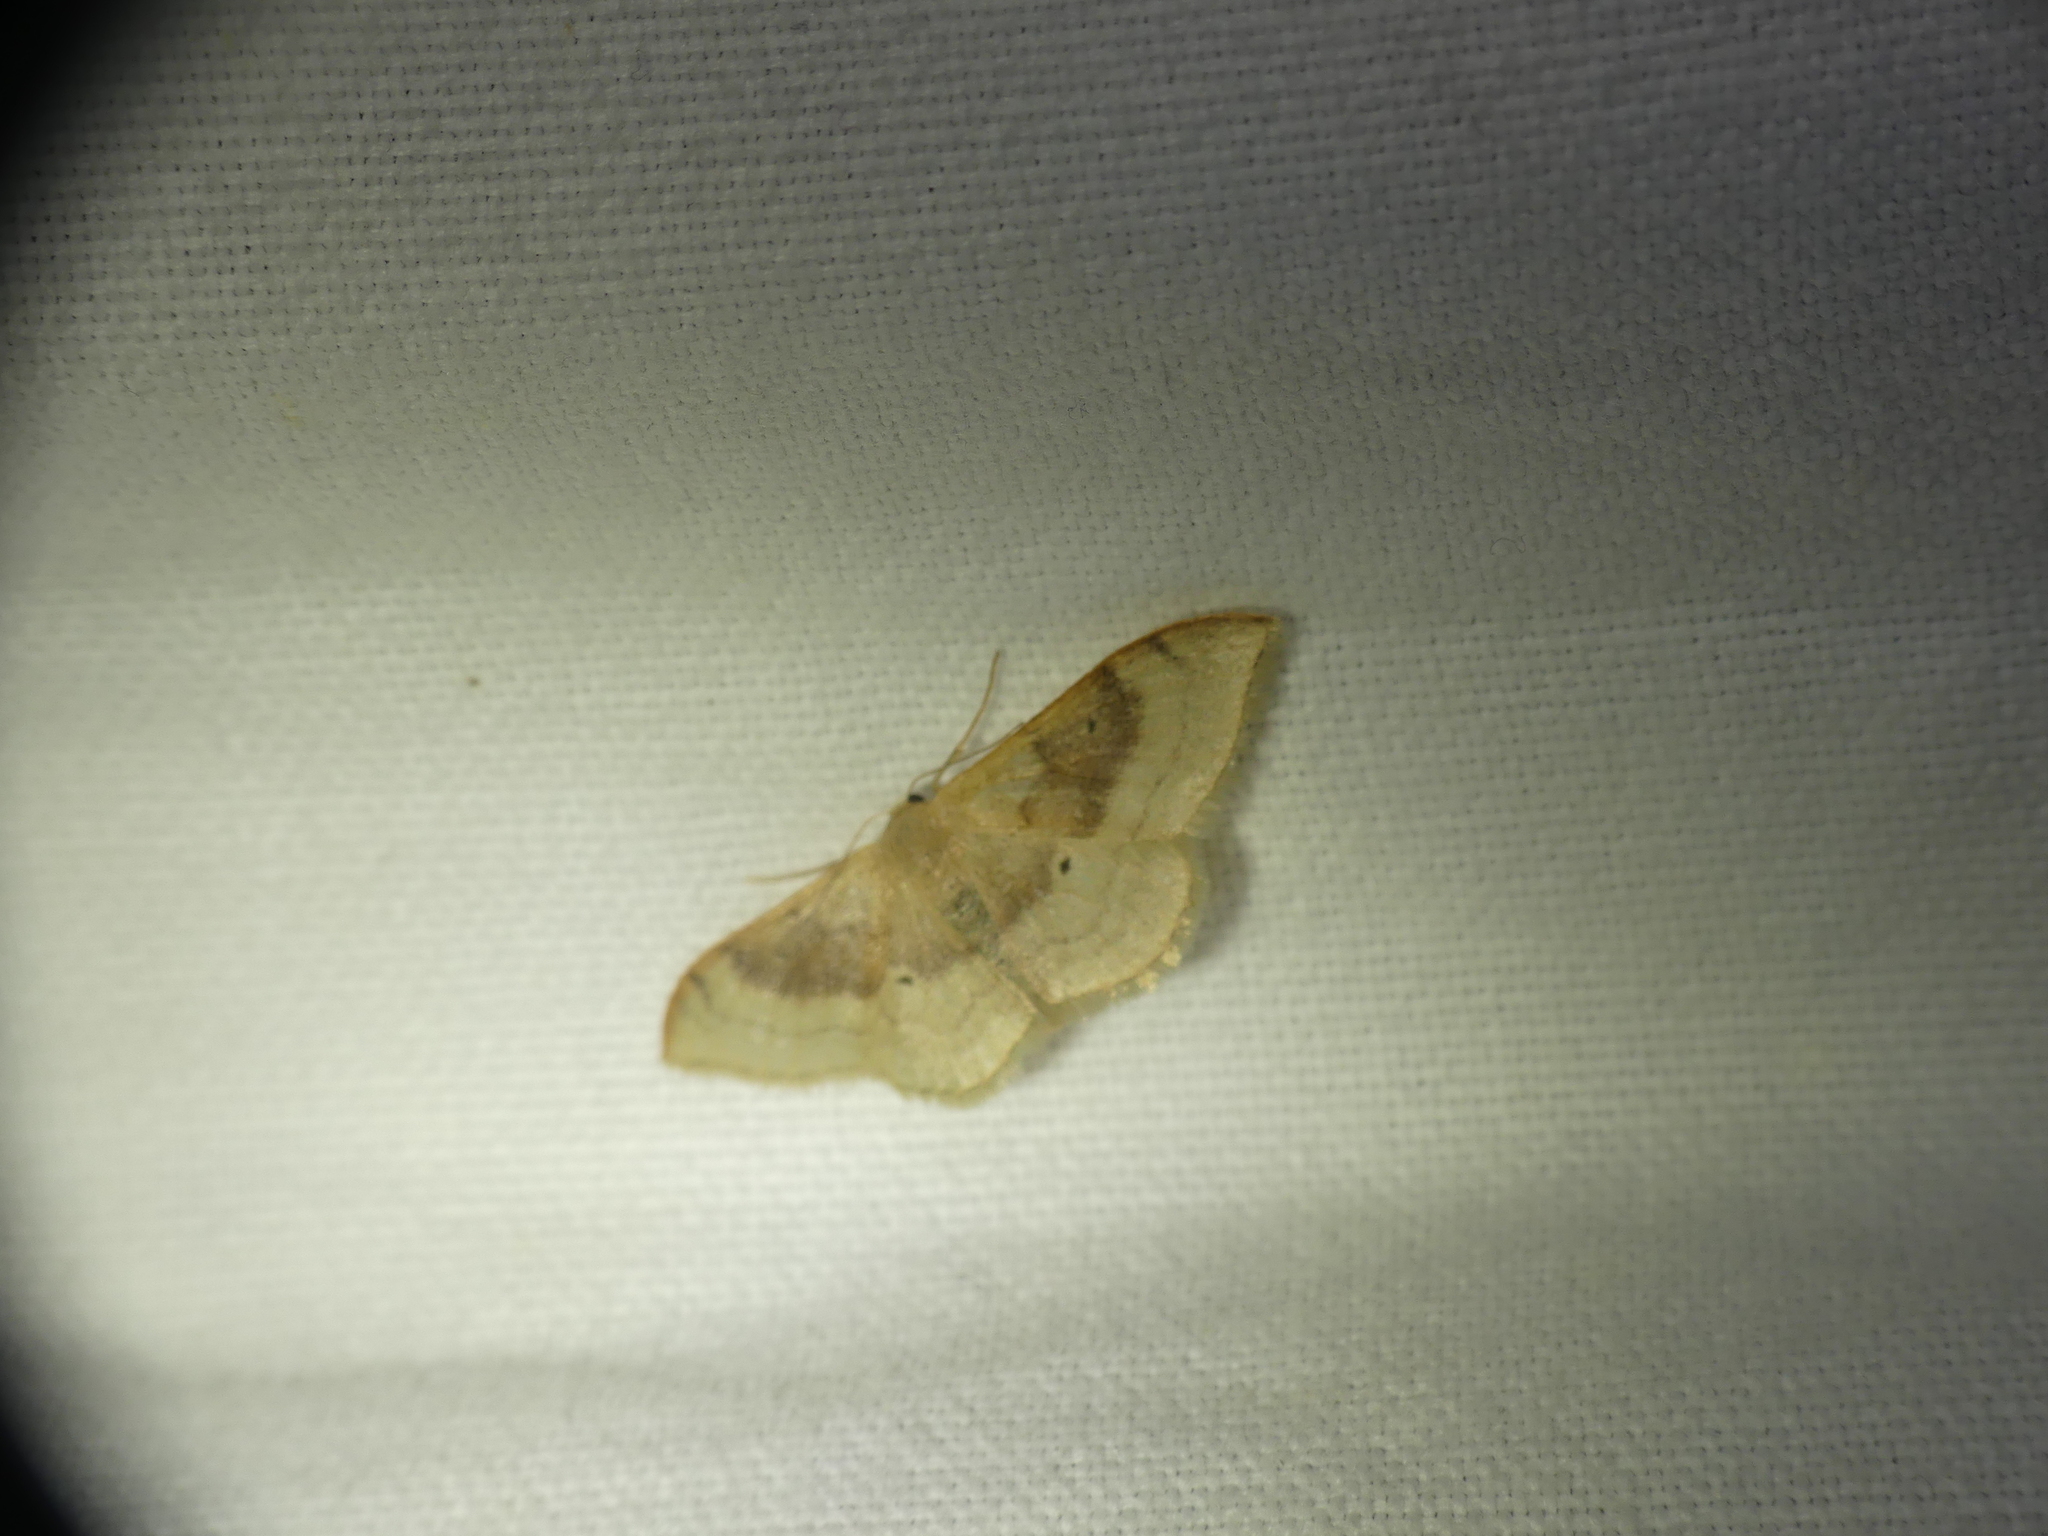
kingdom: Animalia
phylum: Arthropoda
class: Insecta
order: Lepidoptera
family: Geometridae
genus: Idaea
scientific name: Idaea degeneraria
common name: Portland ribbon wave
